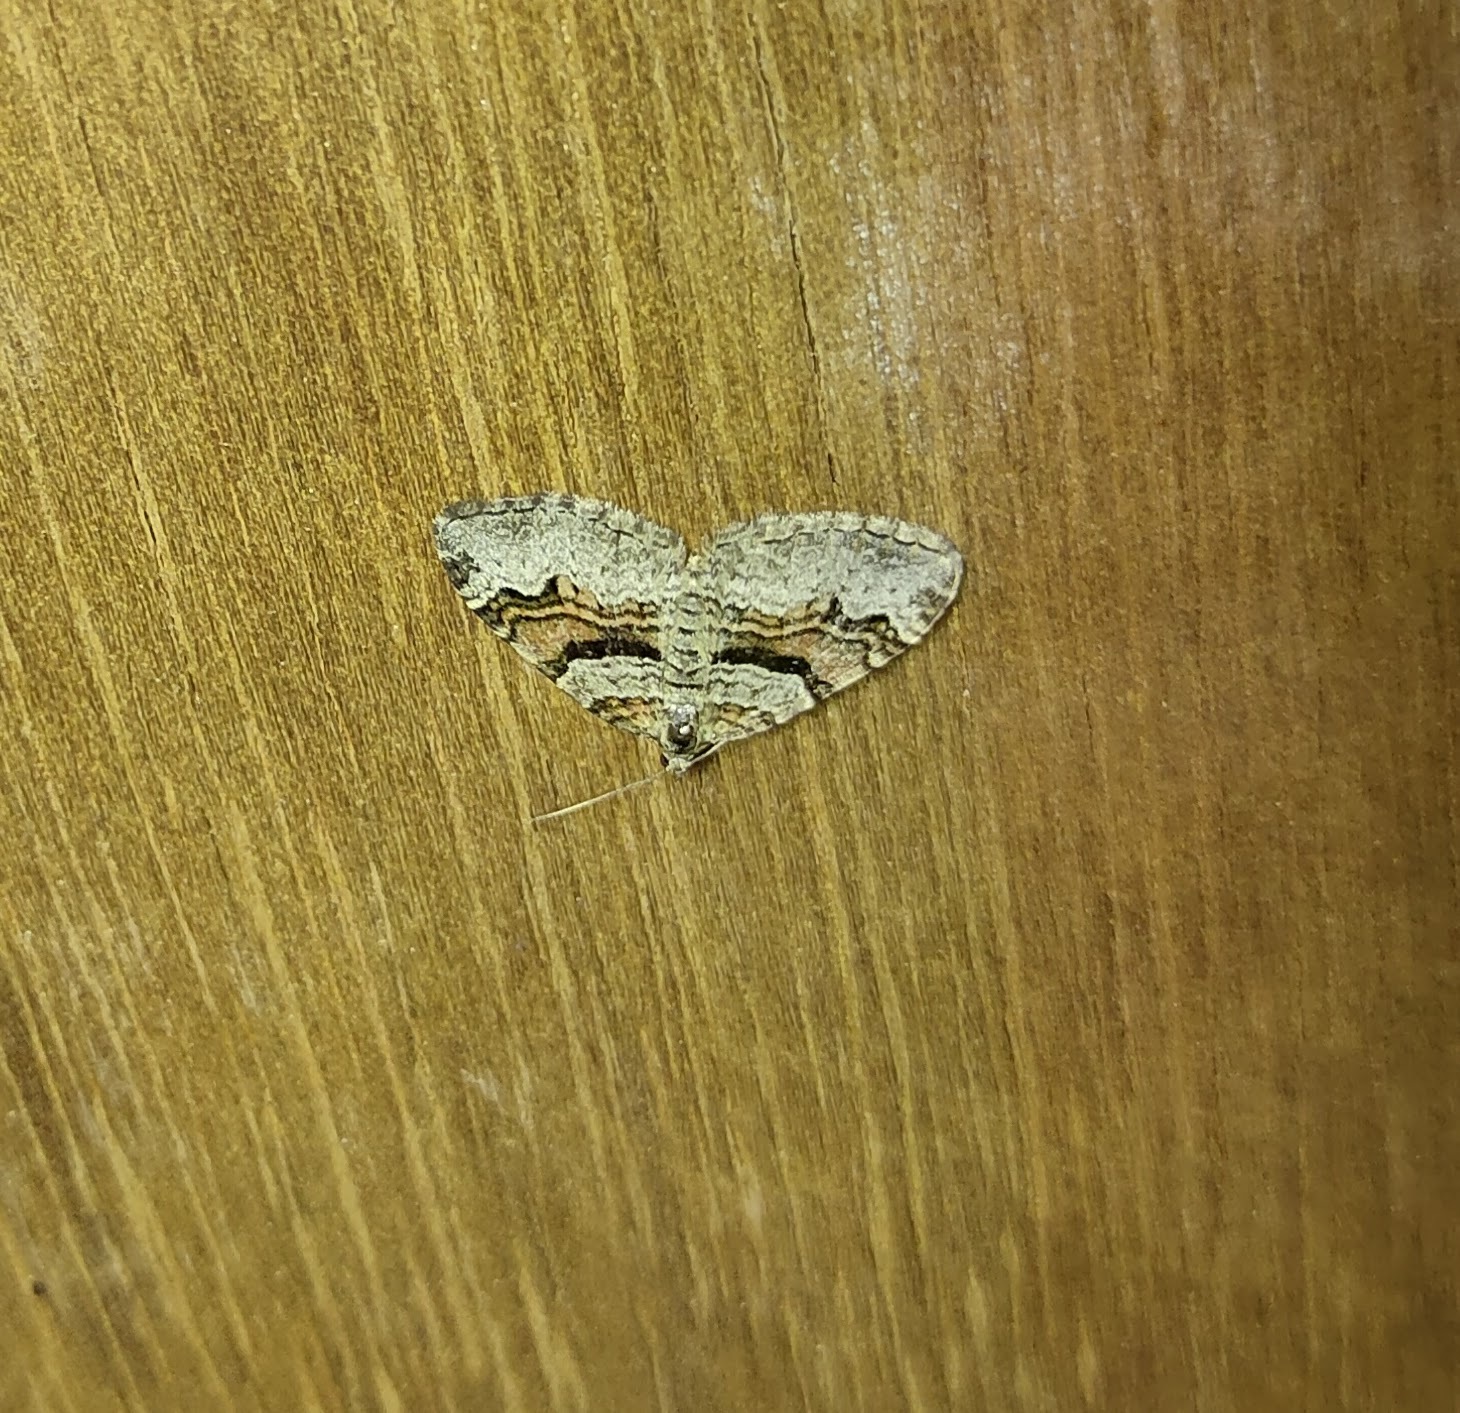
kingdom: Animalia
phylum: Arthropoda
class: Insecta
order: Lepidoptera
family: Geometridae
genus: Xanthorhoe
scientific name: Xanthorhoe designata
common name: Flame carpet
